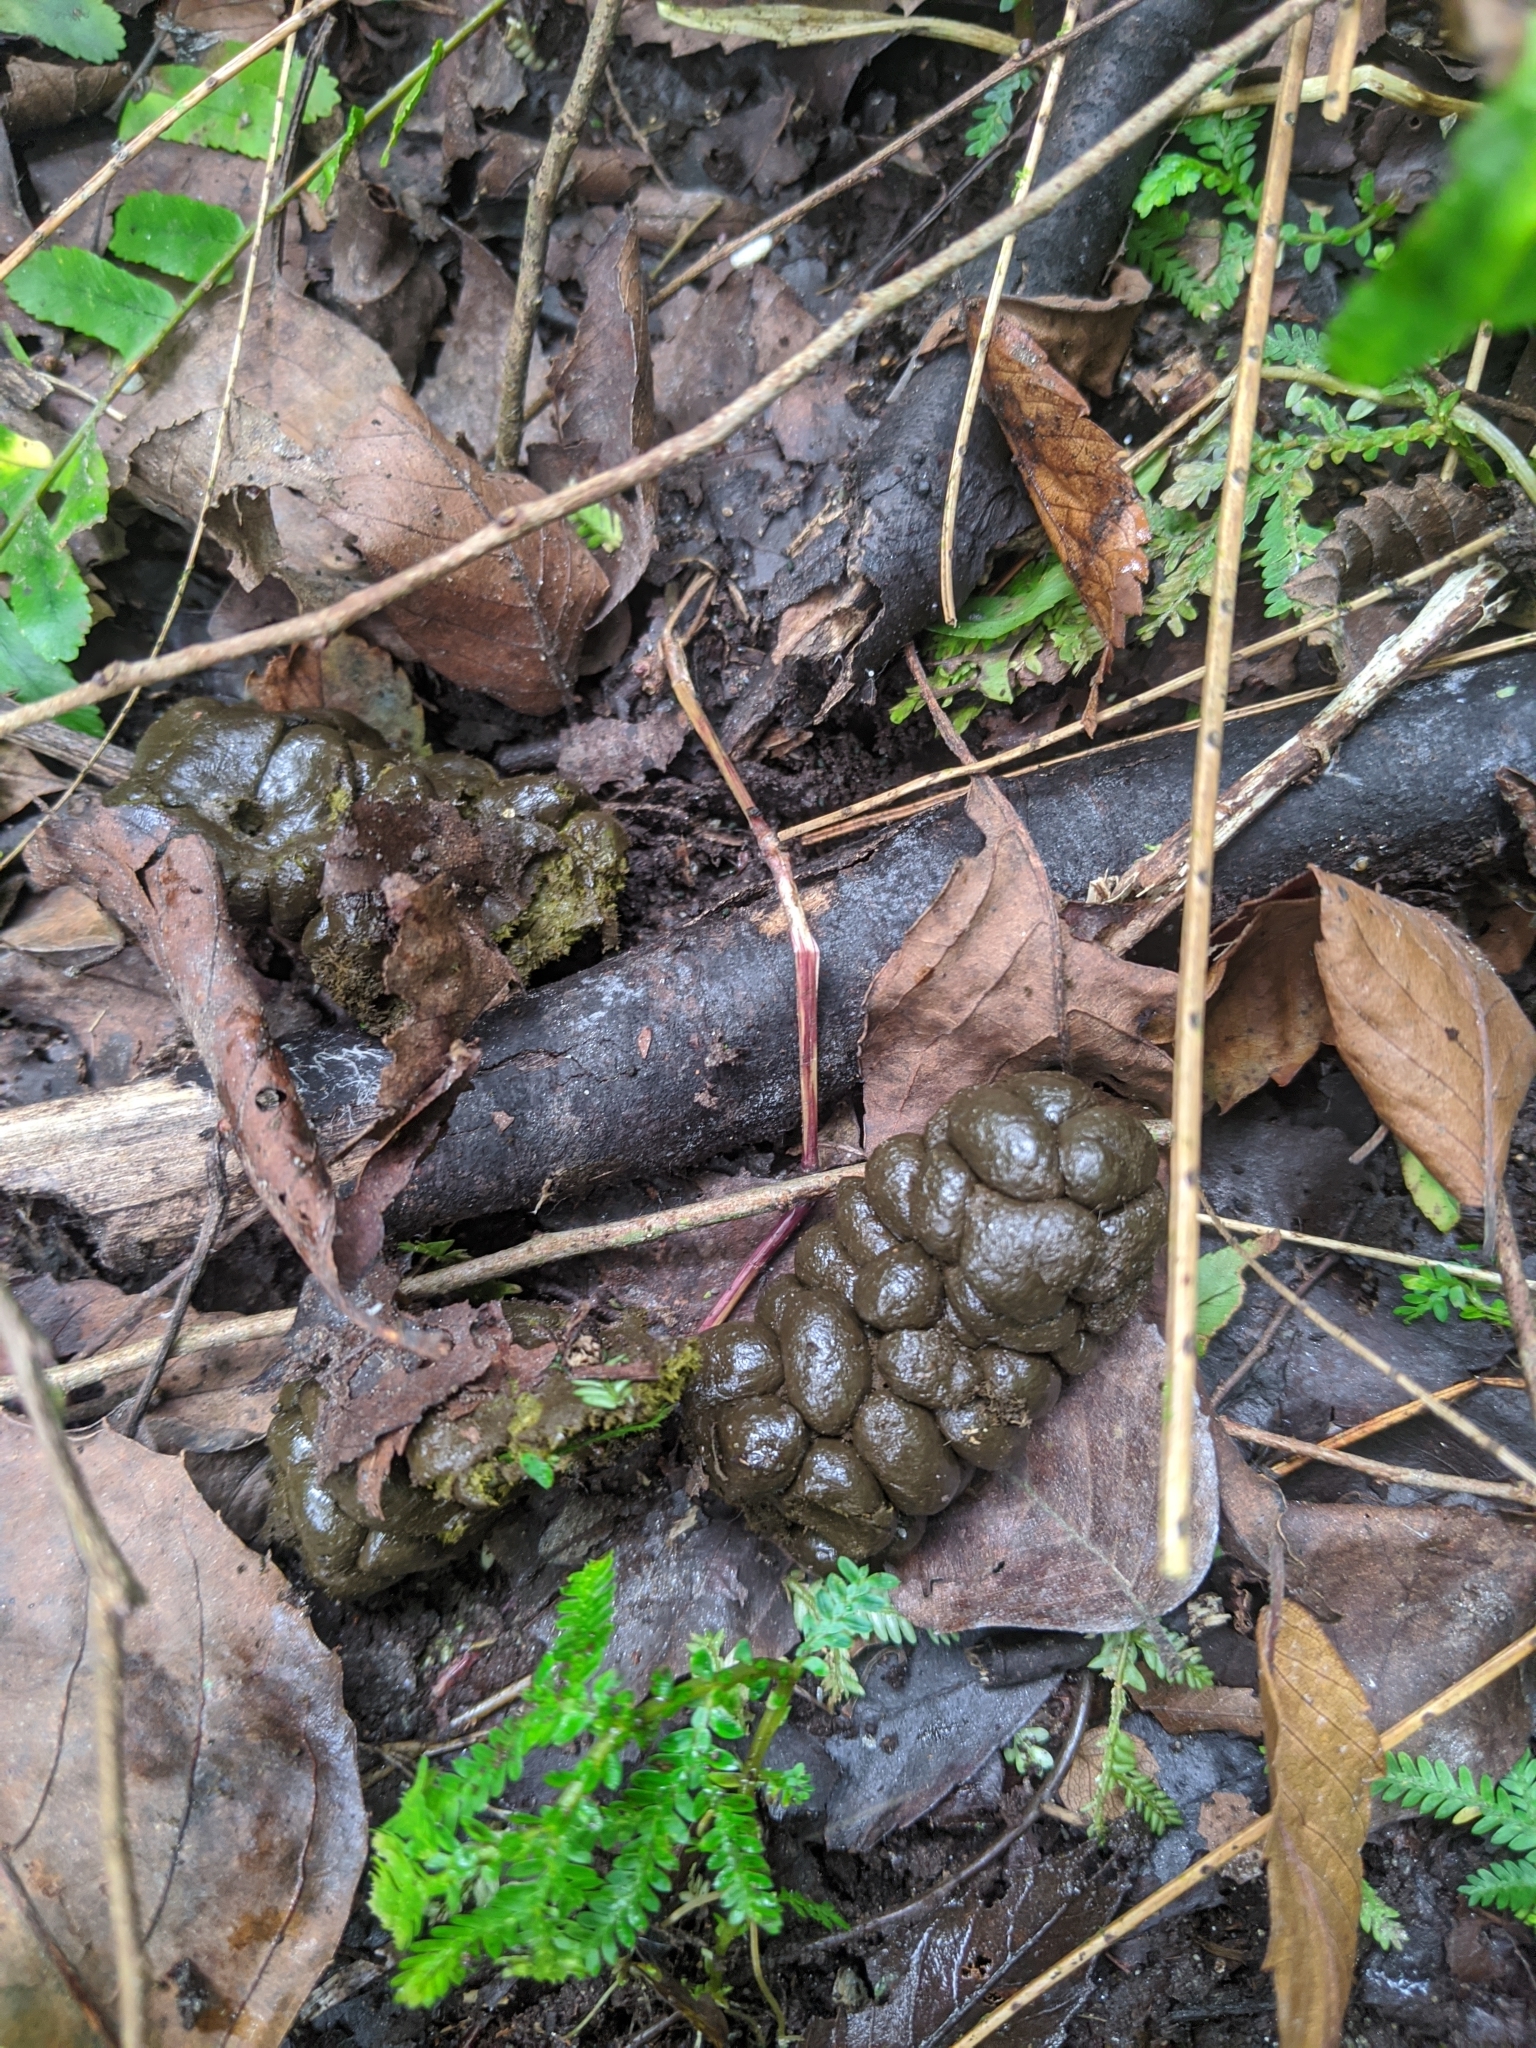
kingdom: Animalia
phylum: Chordata
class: Mammalia
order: Artiodactyla
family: Cervidae
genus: Muntiacus
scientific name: Muntiacus reevesi
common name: Reeves' muntjac
